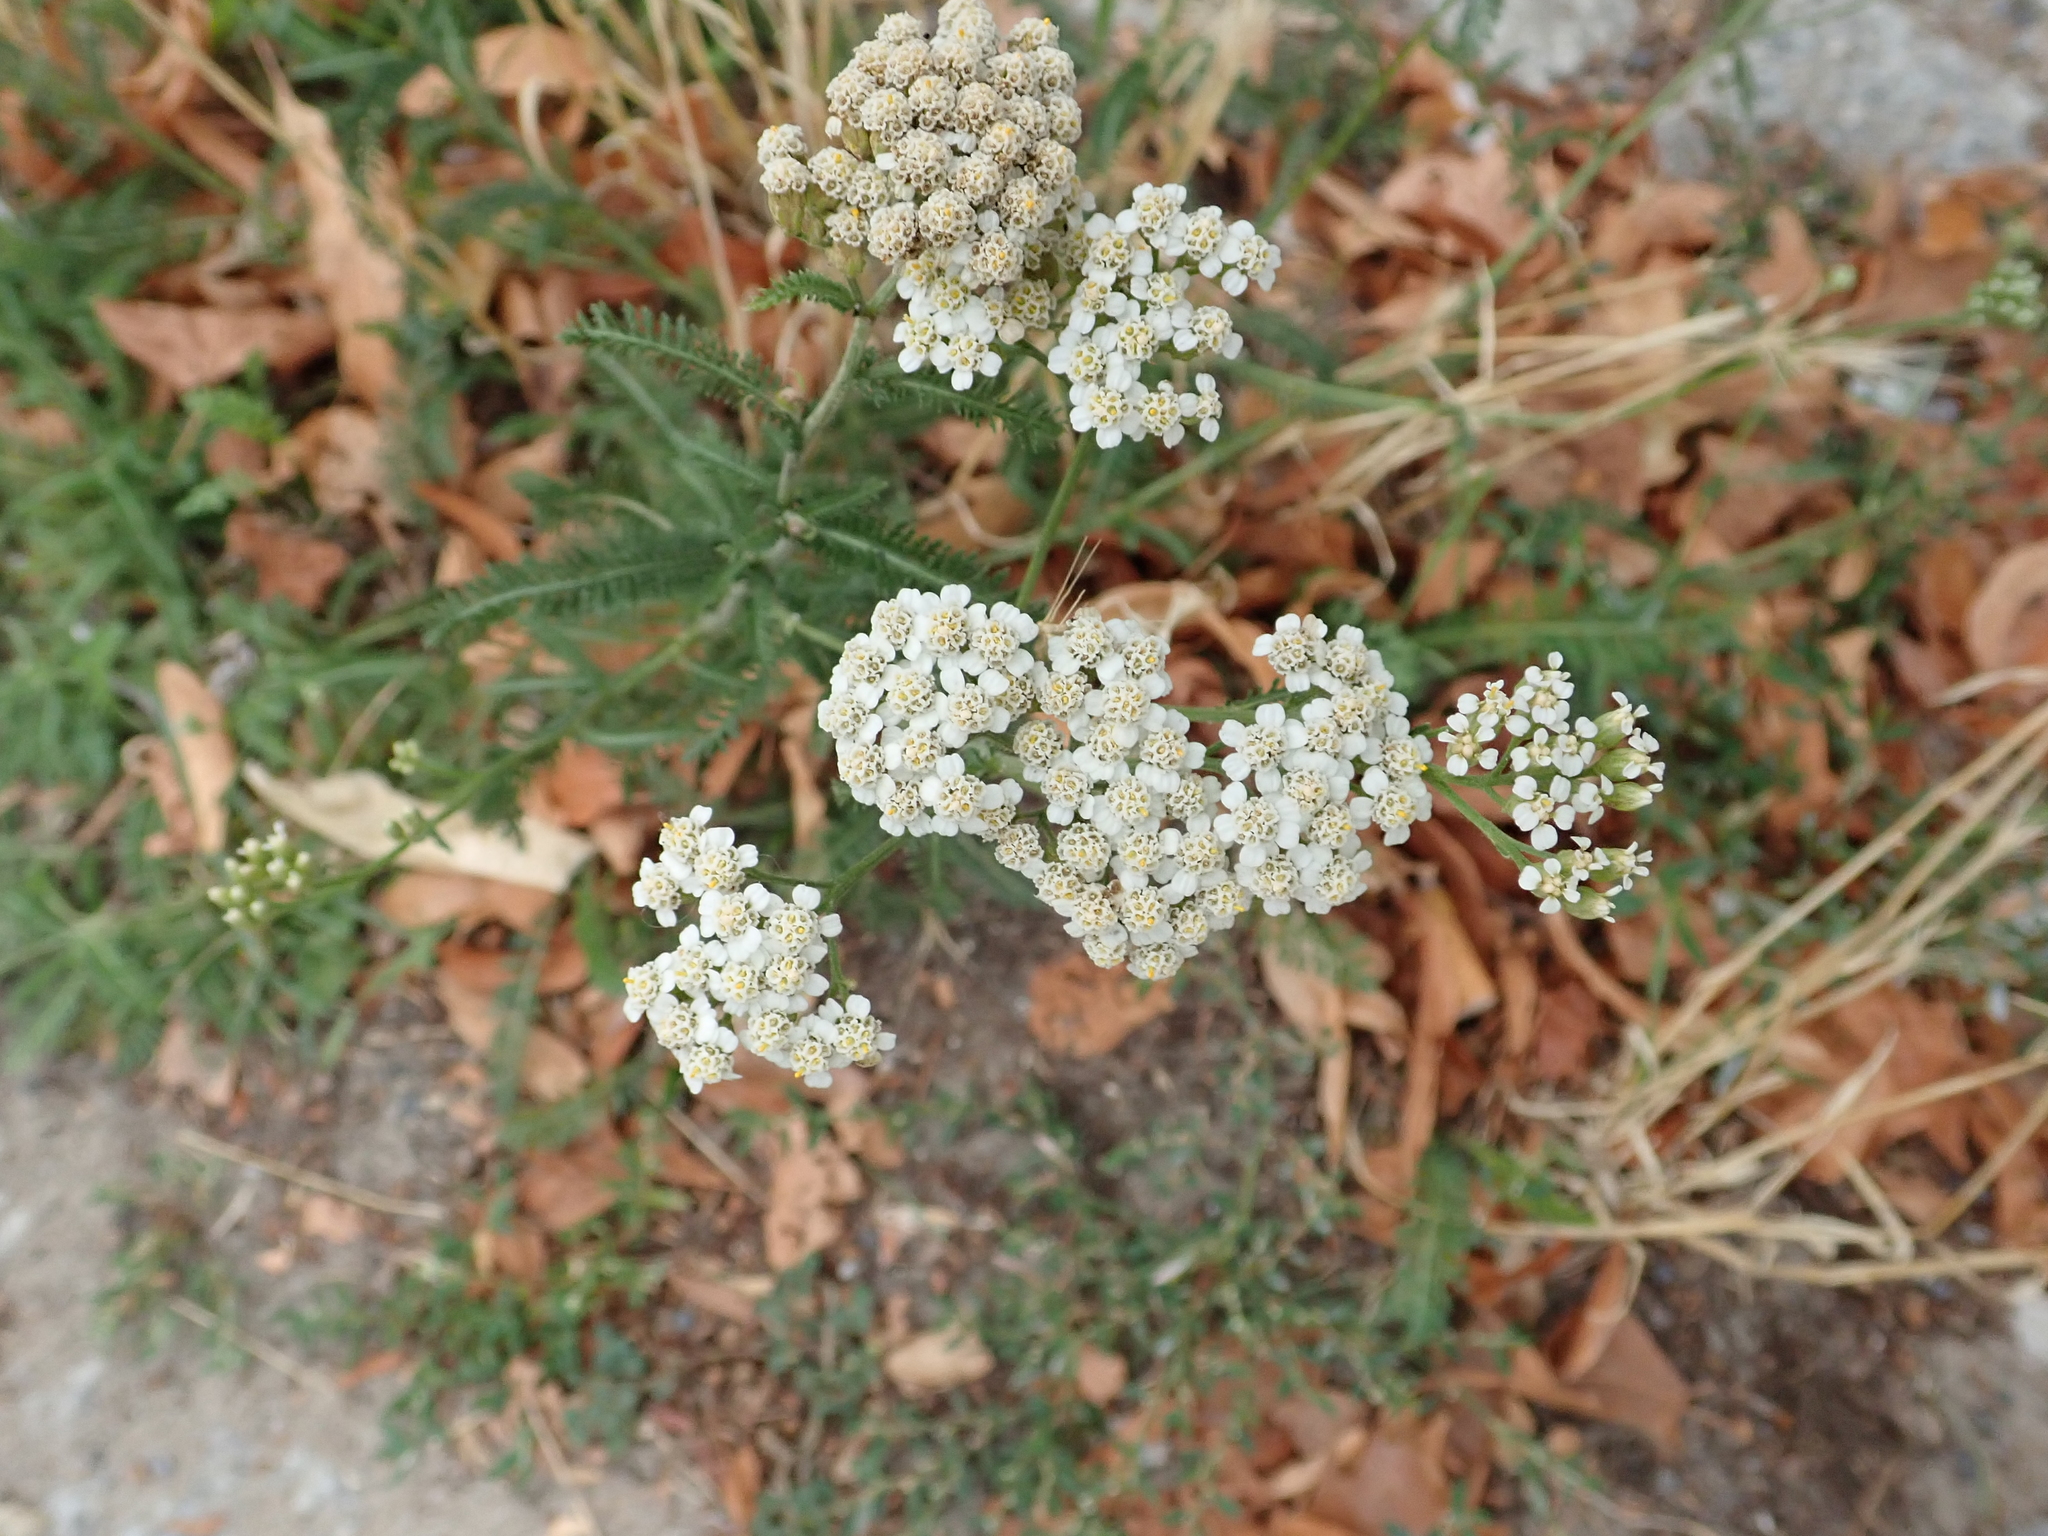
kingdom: Plantae
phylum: Tracheophyta
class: Magnoliopsida
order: Asterales
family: Asteraceae
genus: Achillea
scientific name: Achillea millefolium
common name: Yarrow
